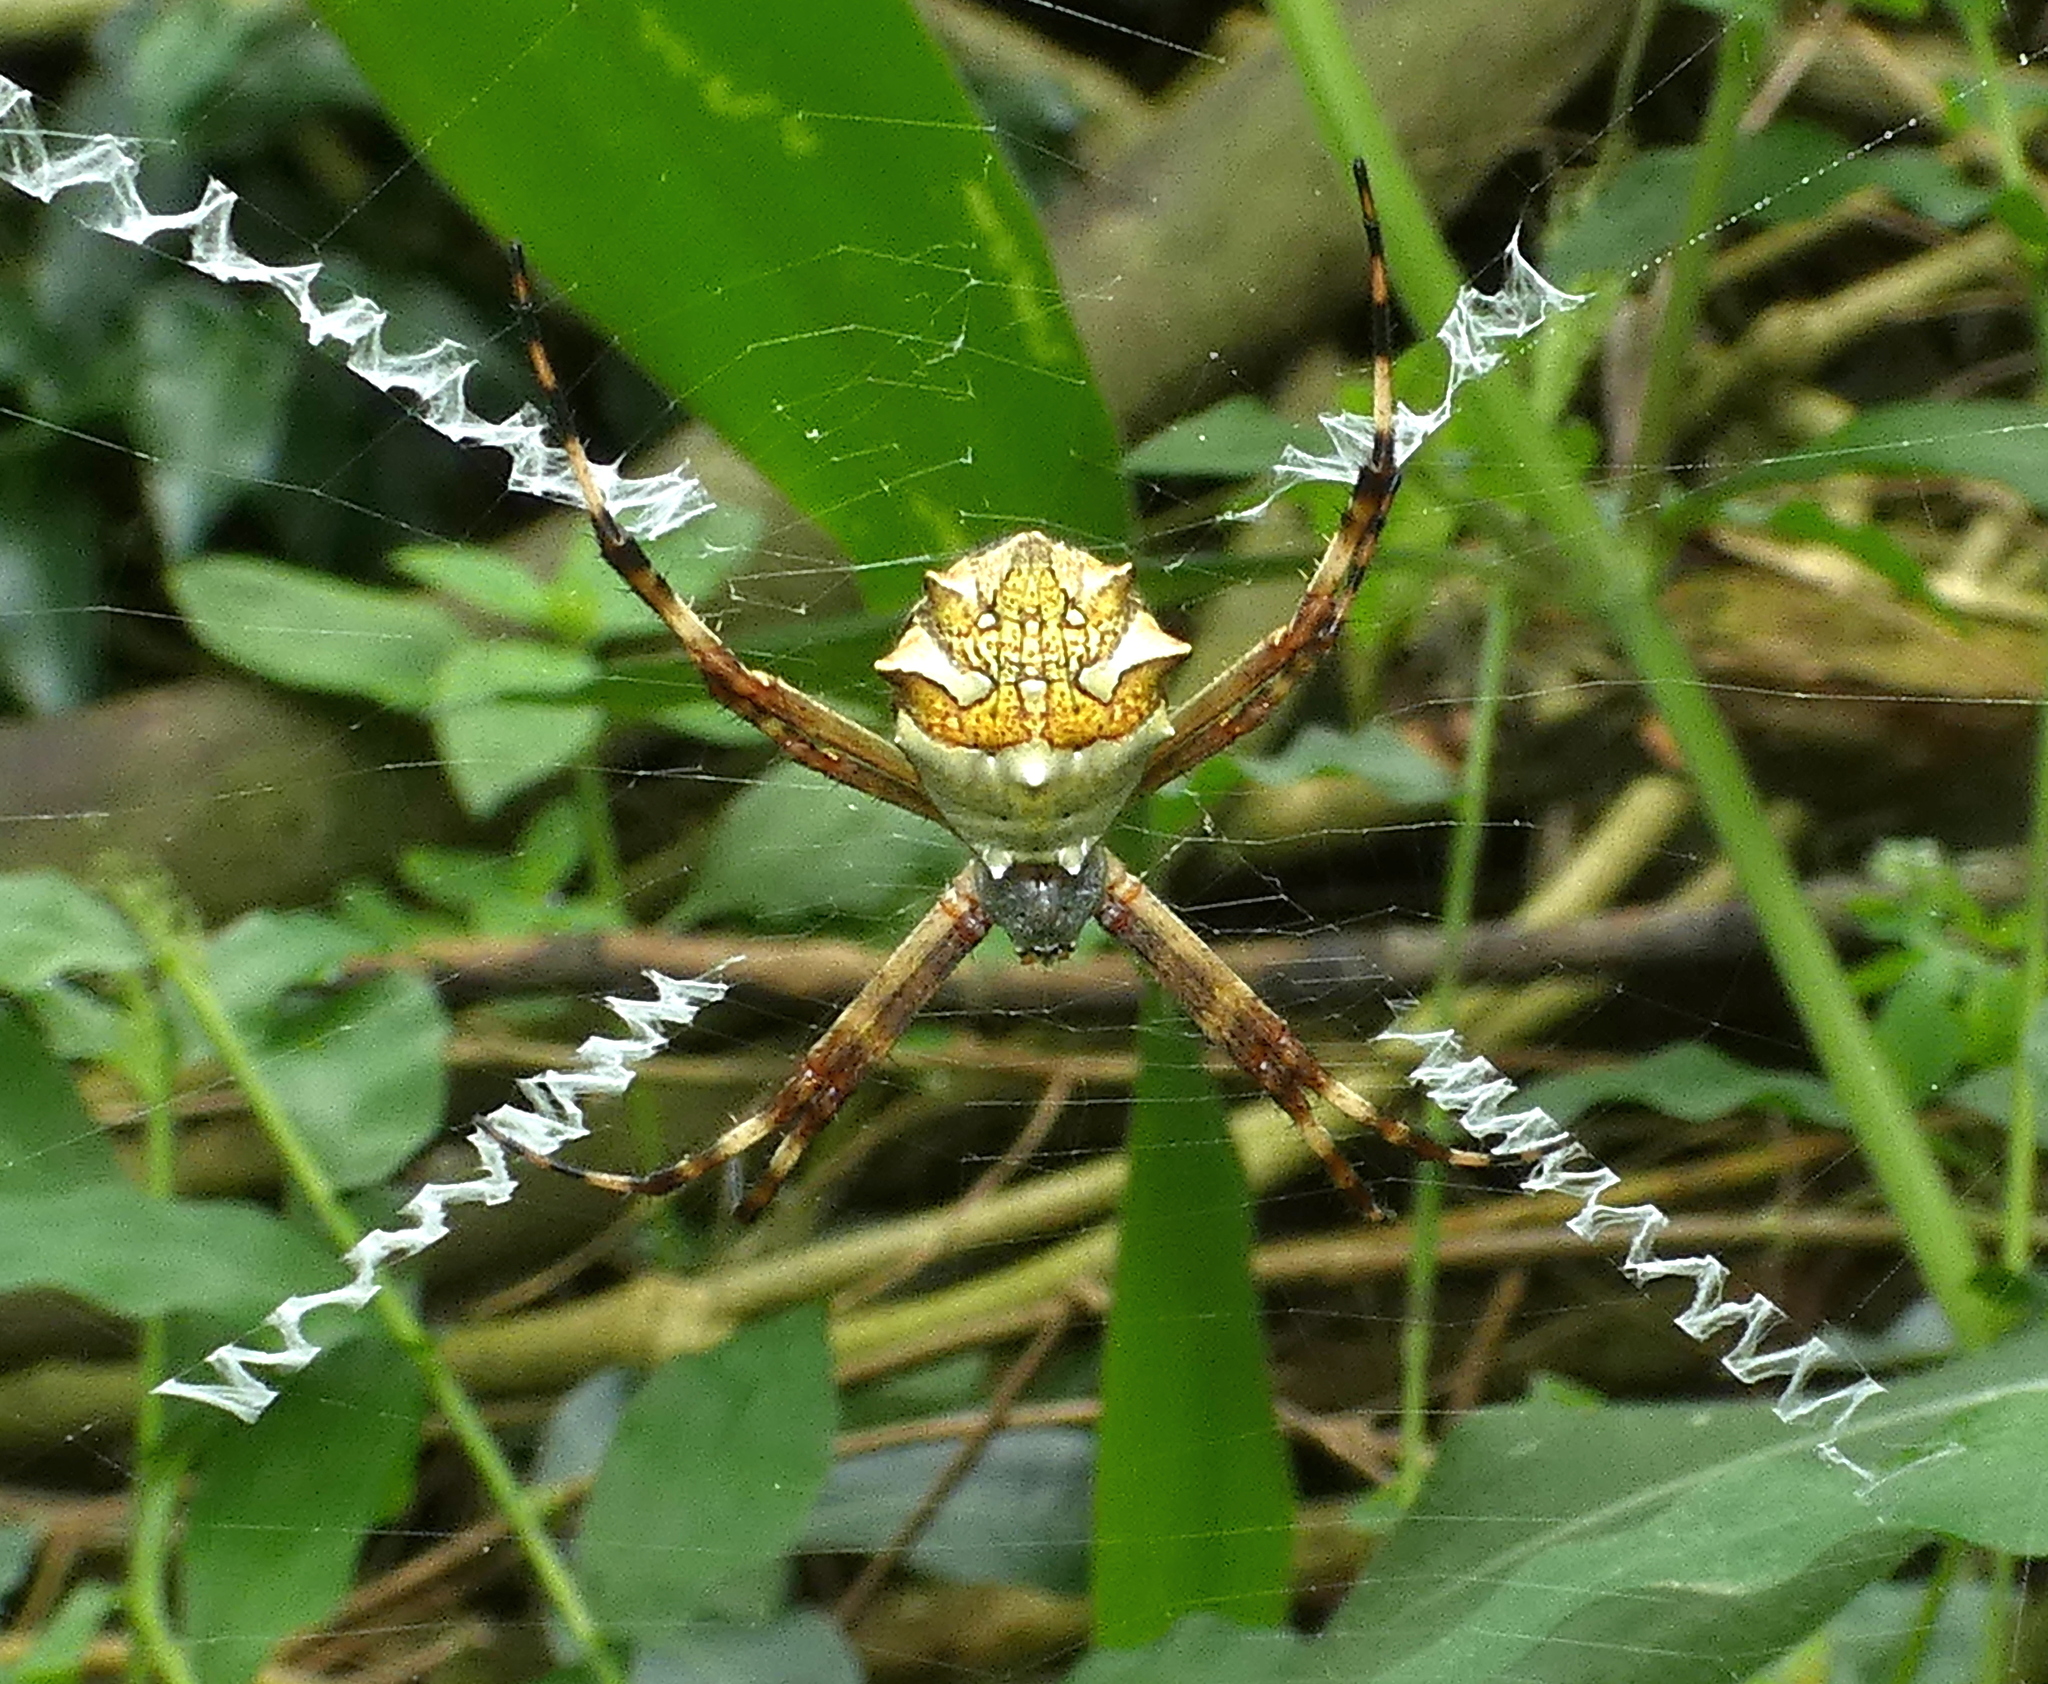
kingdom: Animalia
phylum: Arthropoda
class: Arachnida
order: Araneae
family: Araneidae
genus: Argiope
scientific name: Argiope argentata
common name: Orb weavers
